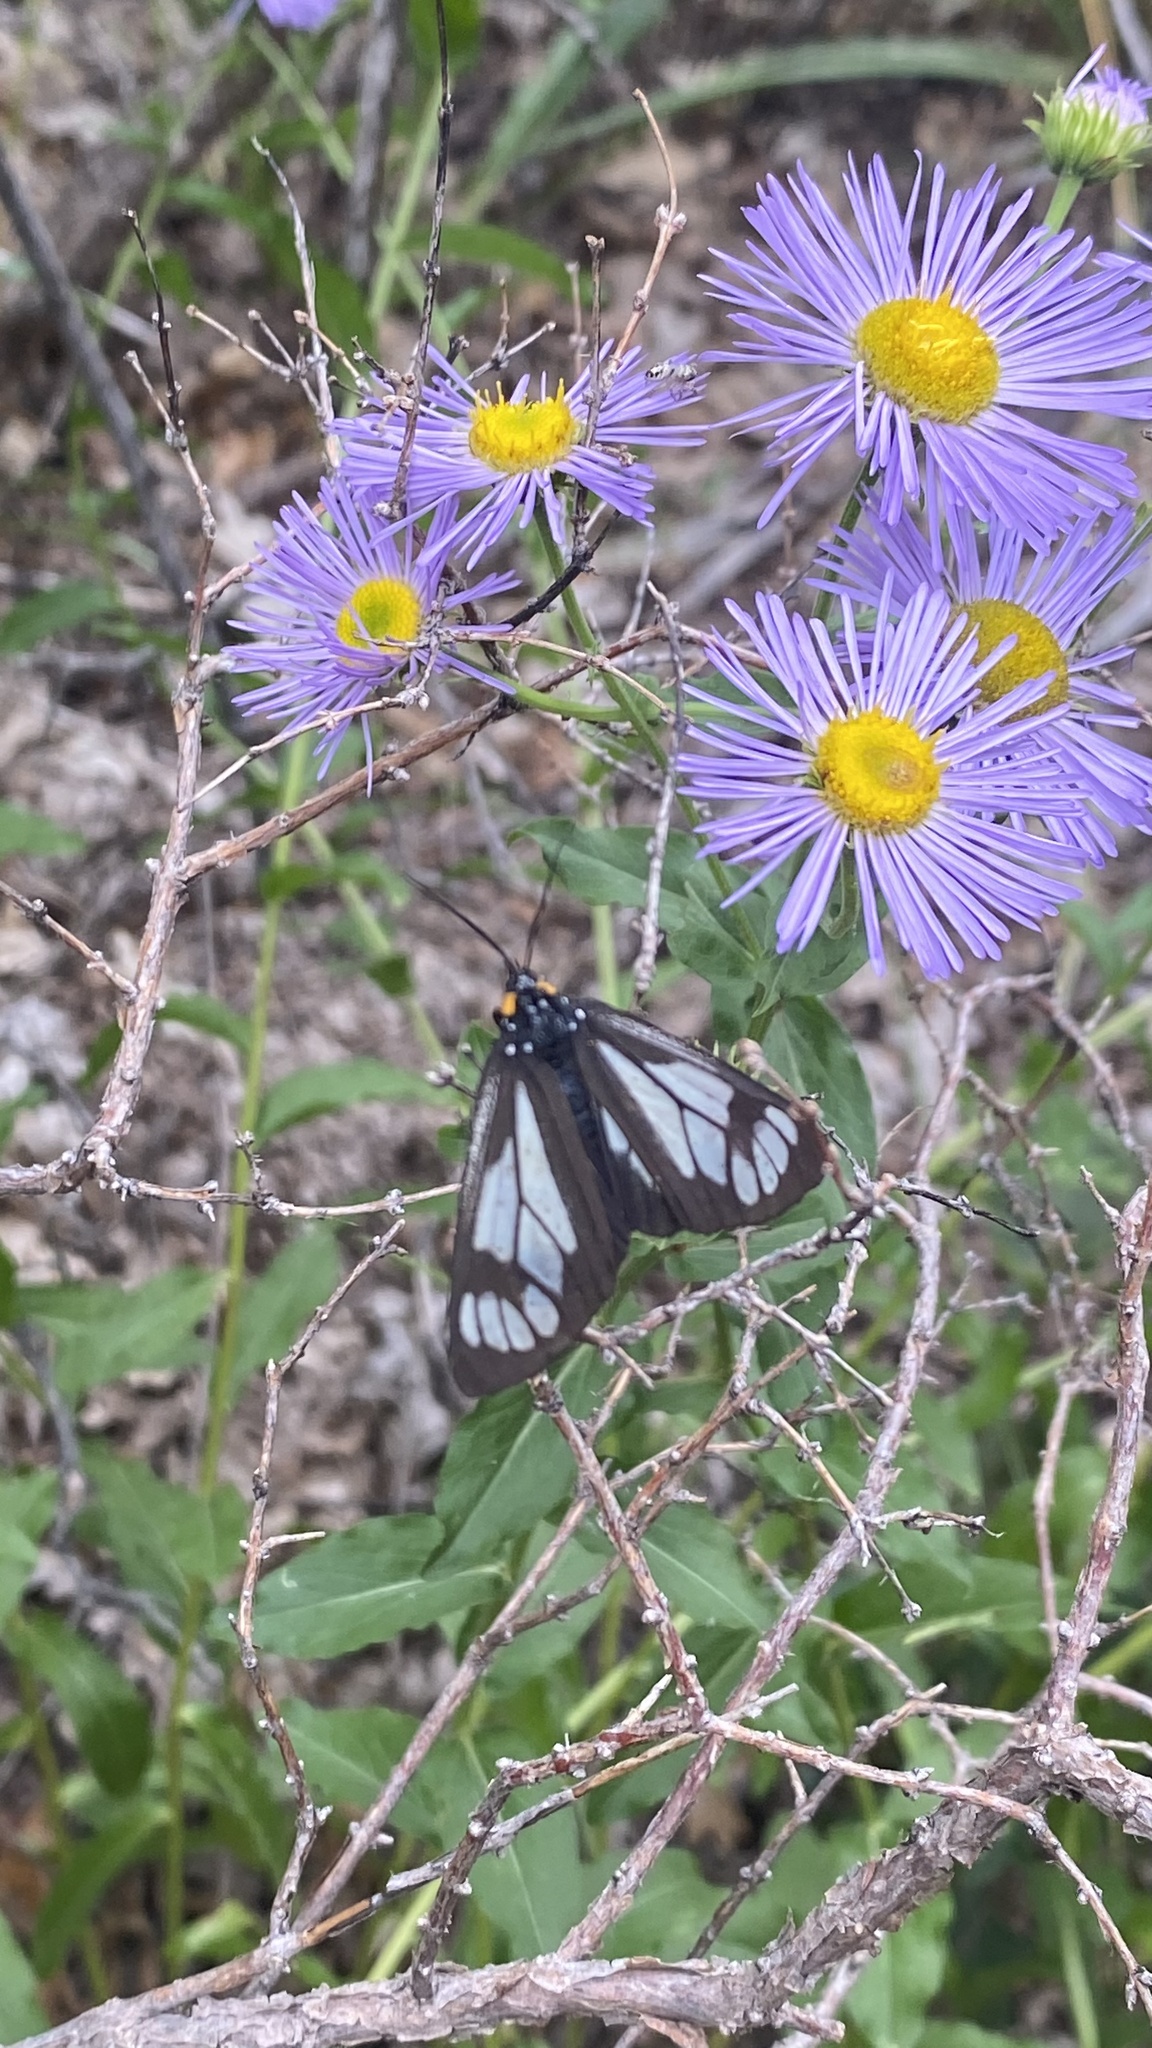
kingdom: Animalia
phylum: Arthropoda
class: Insecta
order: Lepidoptera
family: Erebidae
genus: Gnophaela
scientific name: Gnophaela vermiculata
